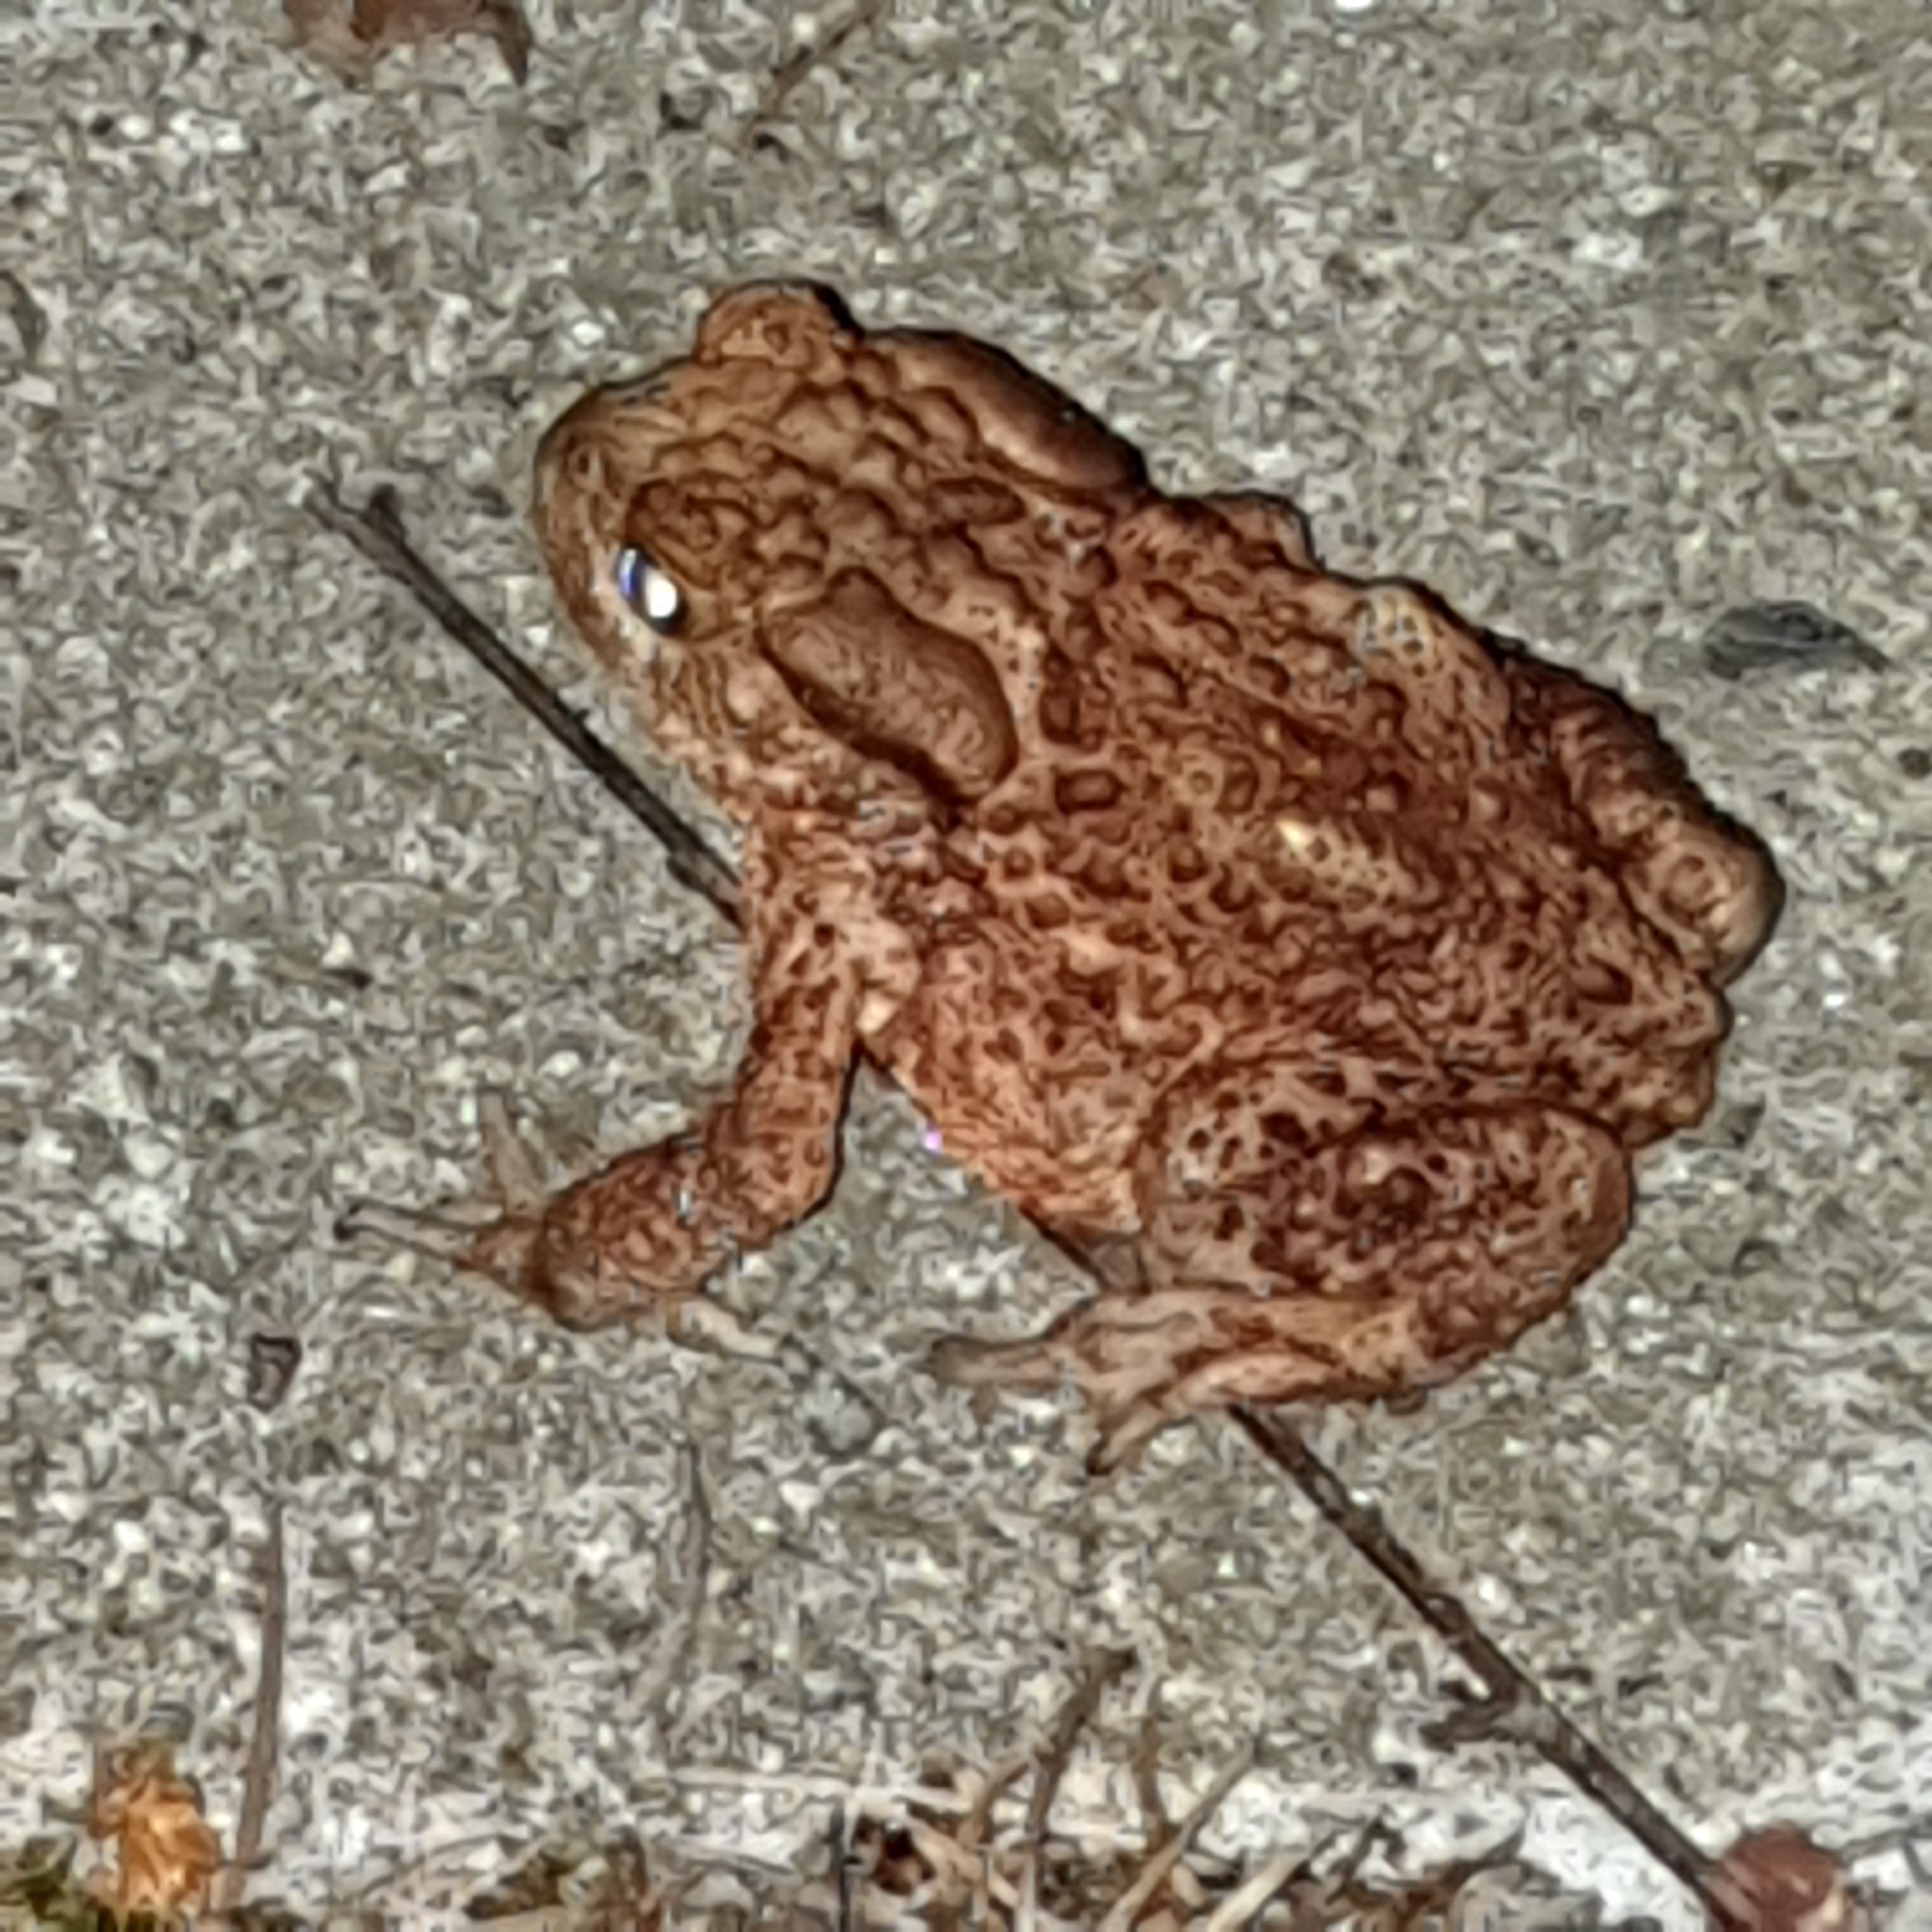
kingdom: Animalia
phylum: Chordata
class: Amphibia
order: Anura
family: Bufonidae
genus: Bufo
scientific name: Bufo bufo
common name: Common toad
